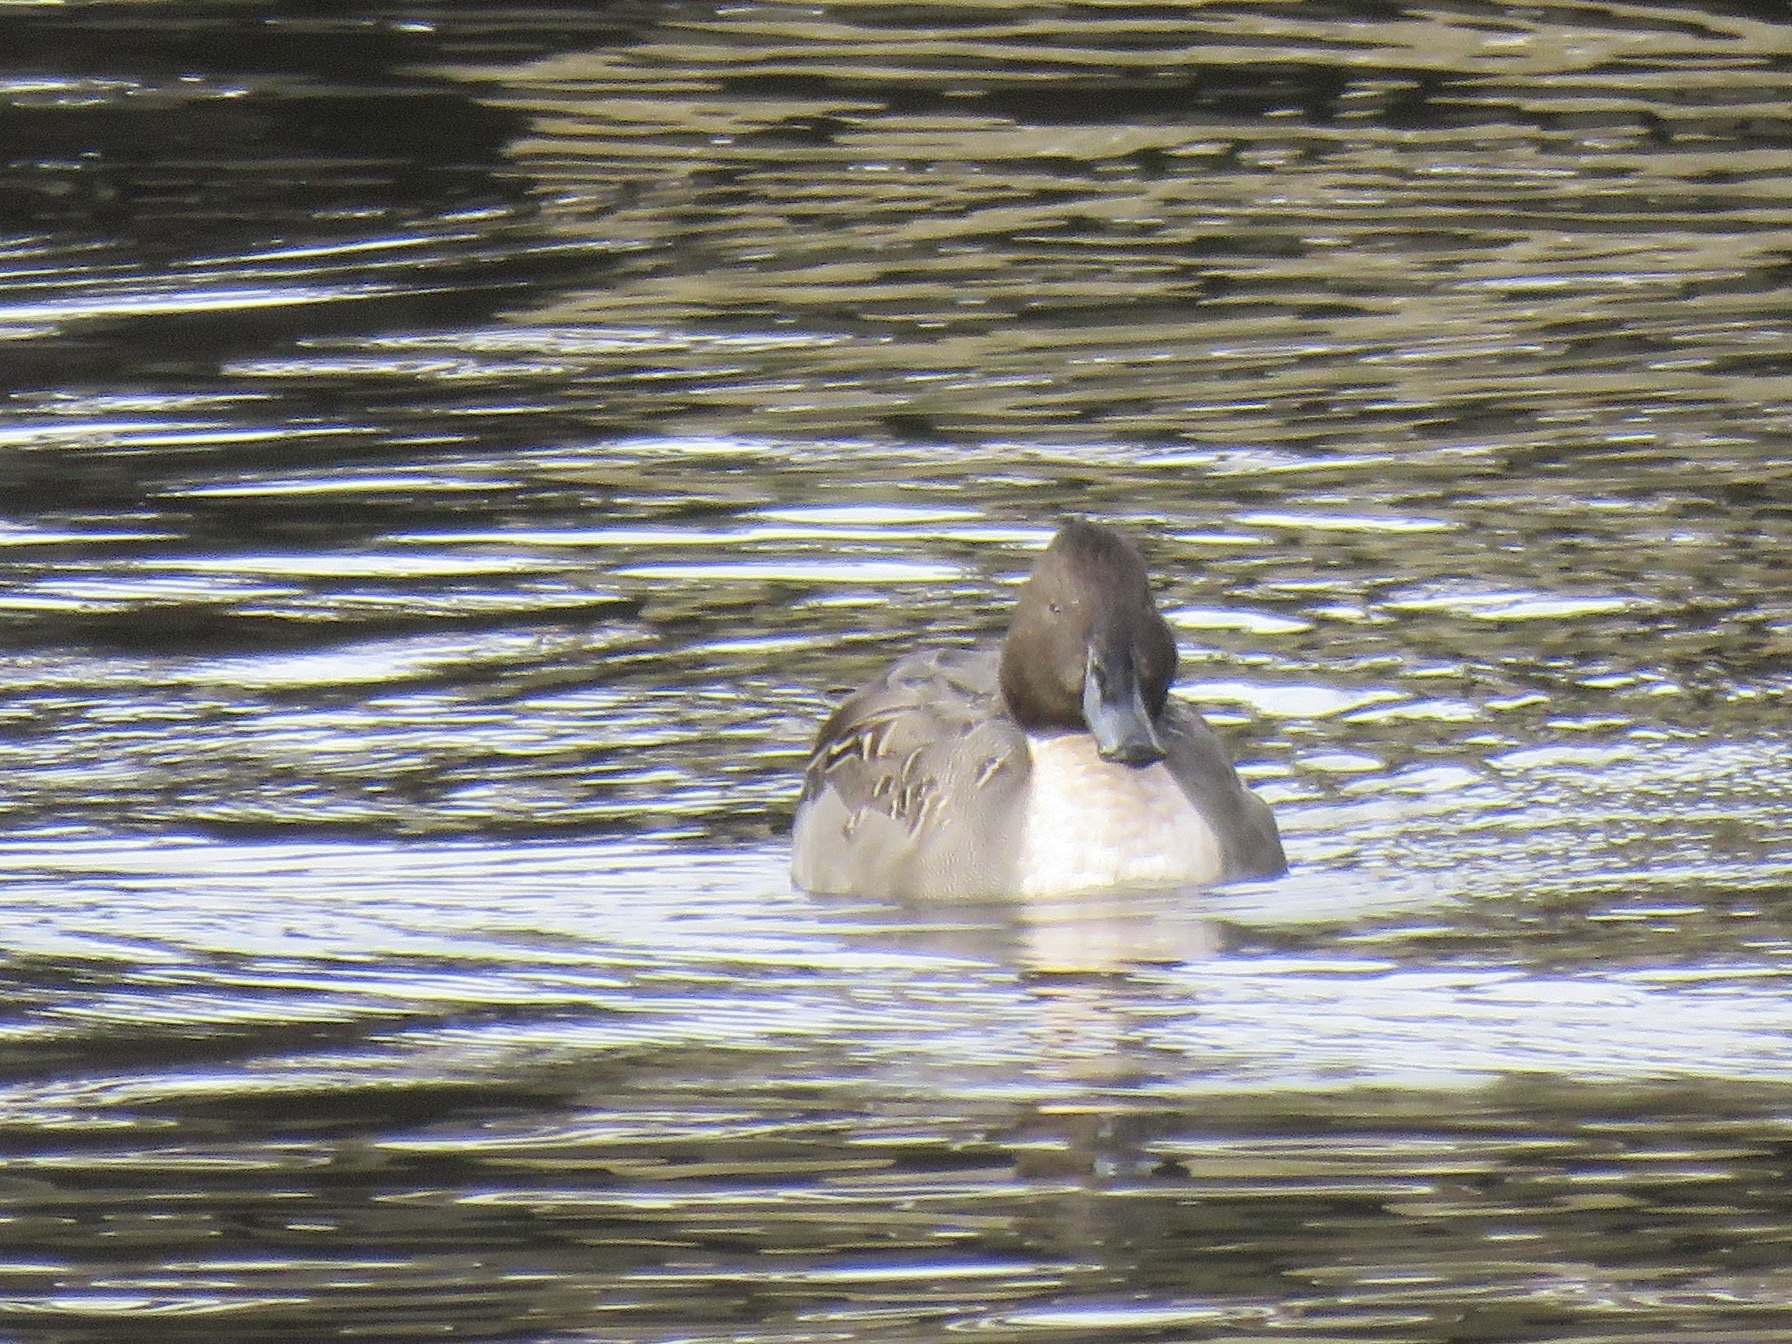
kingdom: Animalia
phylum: Chordata
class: Aves
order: Anseriformes
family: Anatidae
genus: Anas
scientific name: Anas acuta
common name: Northern pintail
